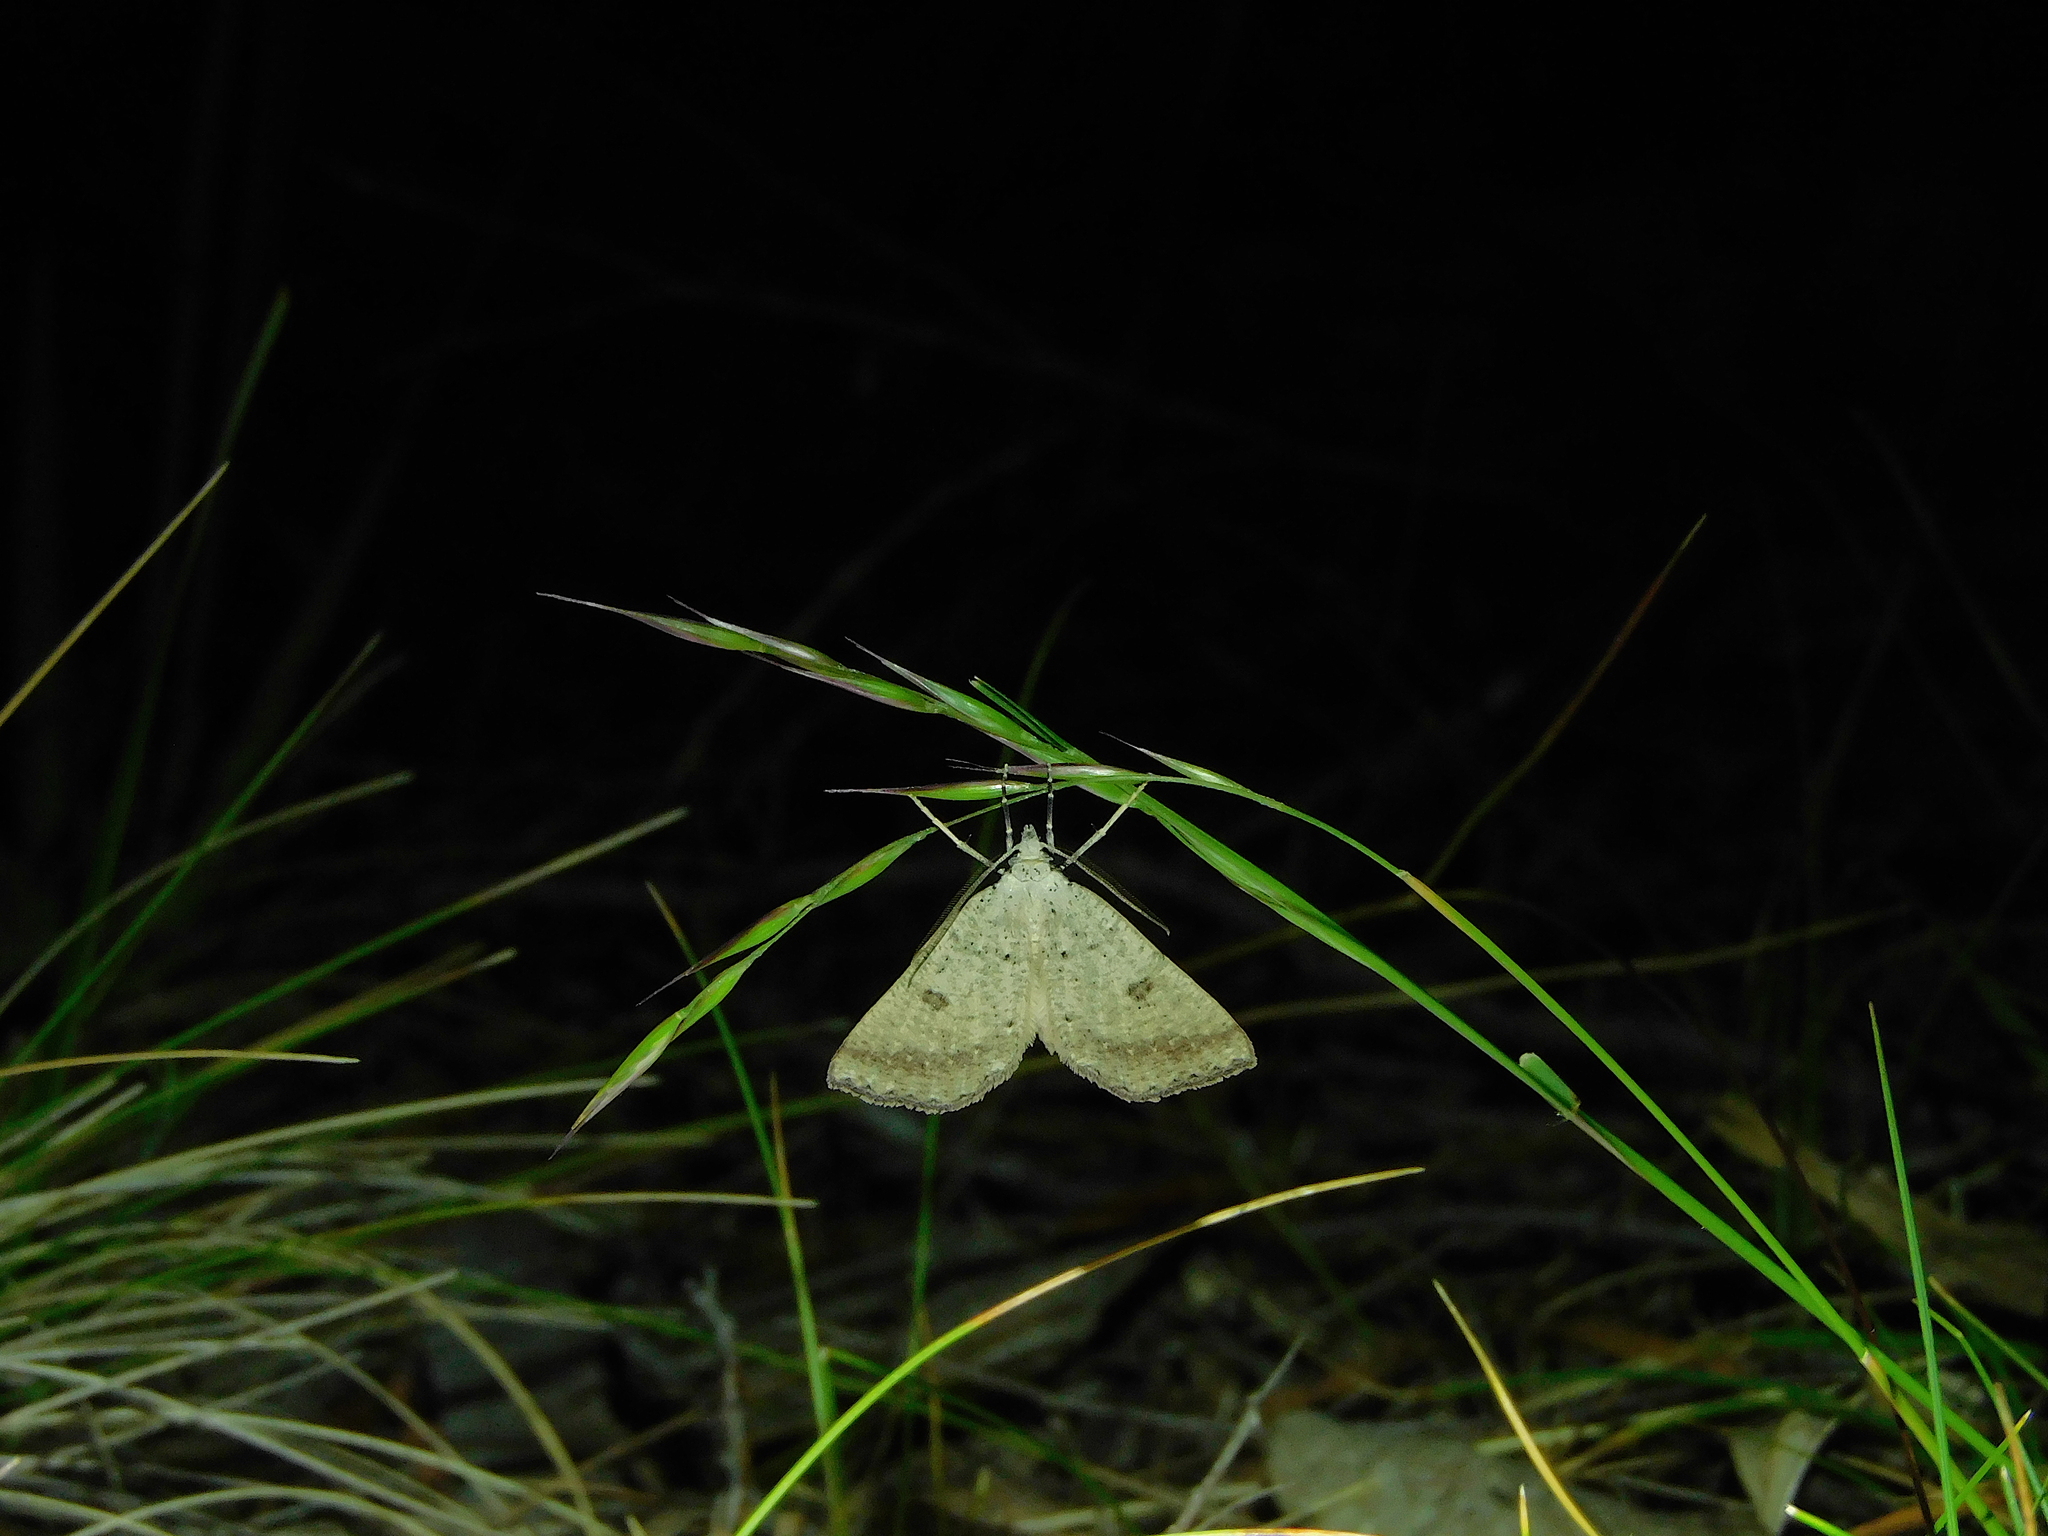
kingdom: Animalia
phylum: Arthropoda
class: Insecta
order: Lepidoptera
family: Geometridae
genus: Amelora
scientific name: Amelora zophopasta
